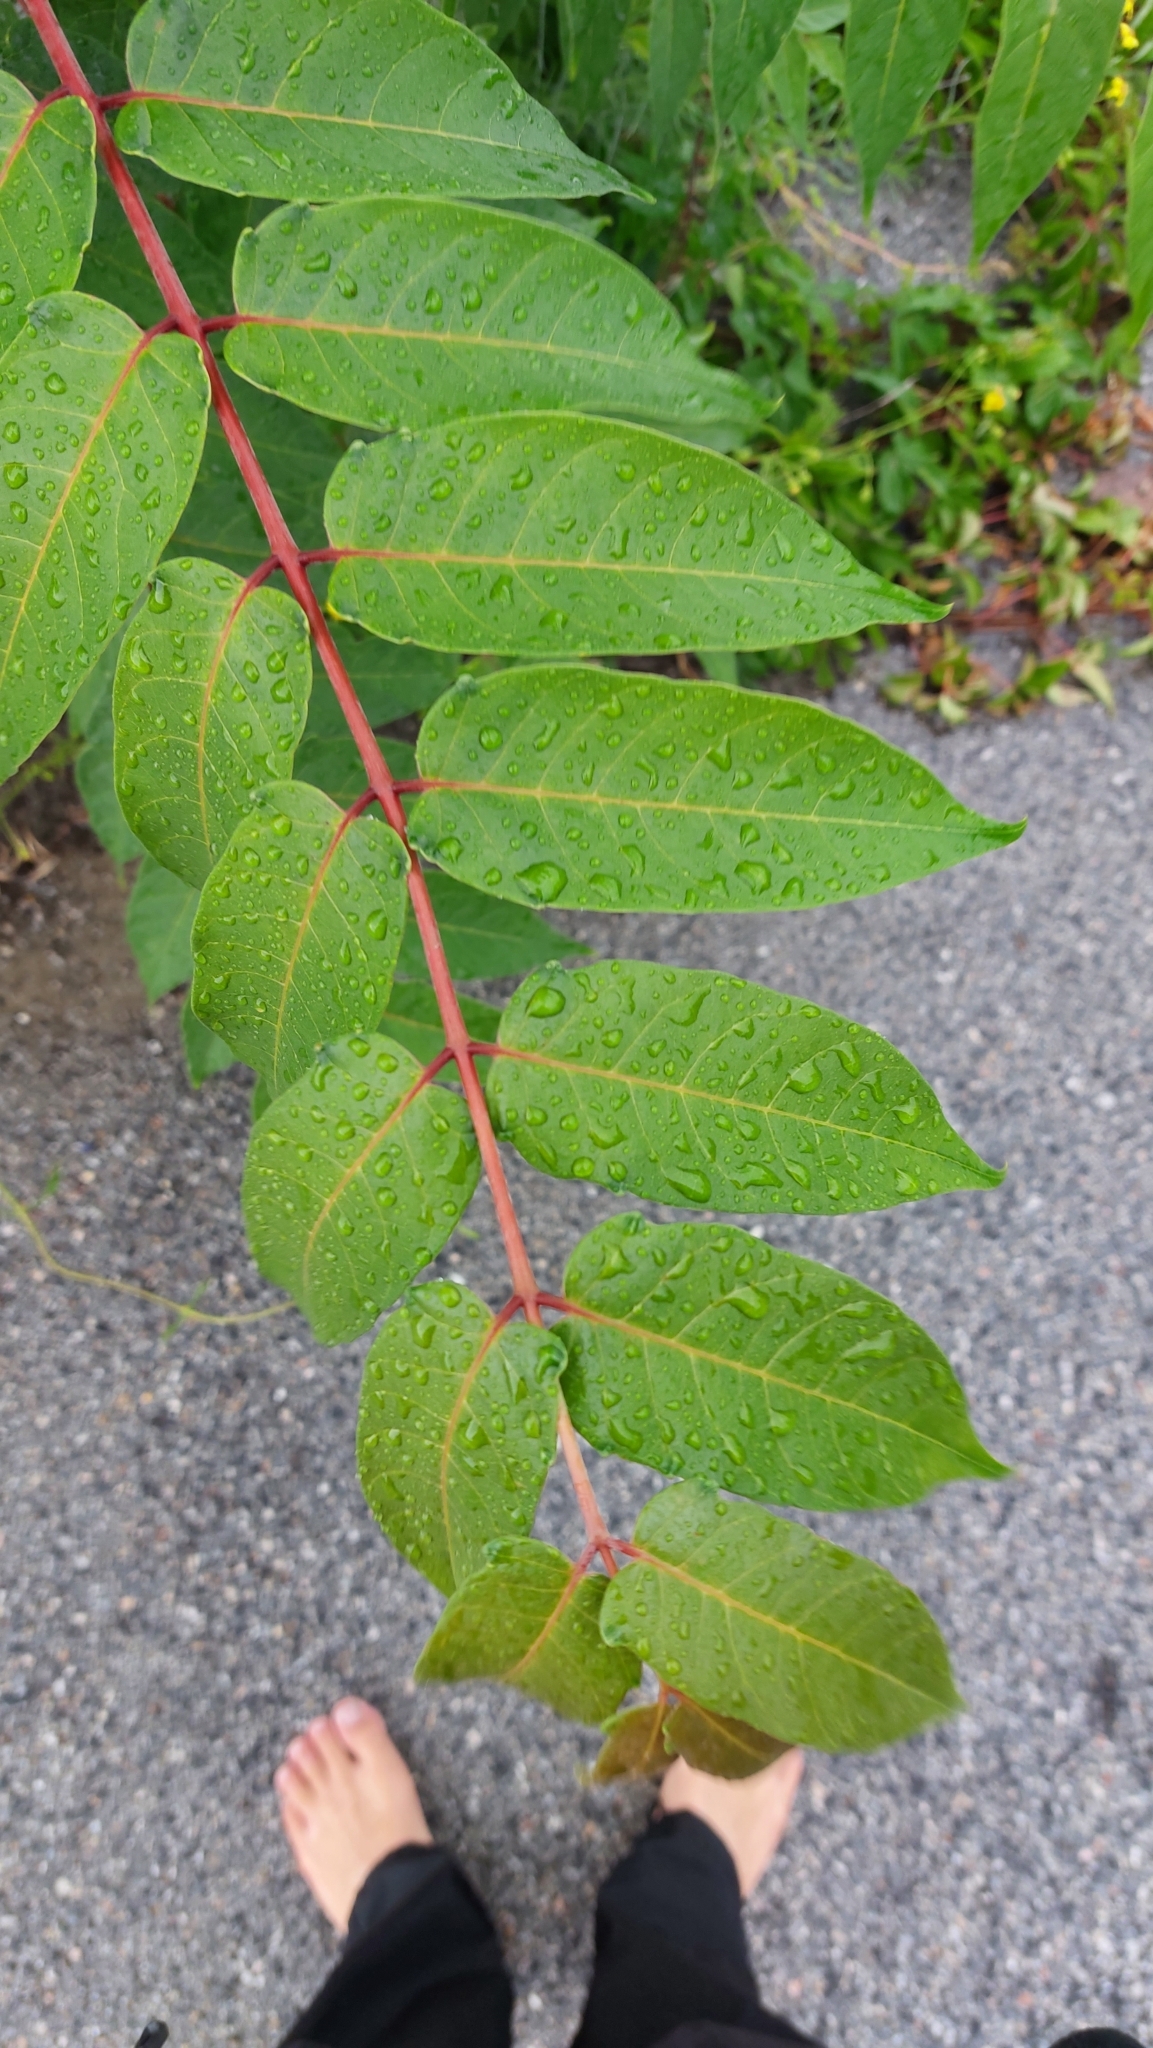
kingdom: Plantae
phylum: Tracheophyta
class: Magnoliopsida
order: Sapindales
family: Simaroubaceae
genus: Ailanthus
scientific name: Ailanthus altissima
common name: Tree-of-heaven
